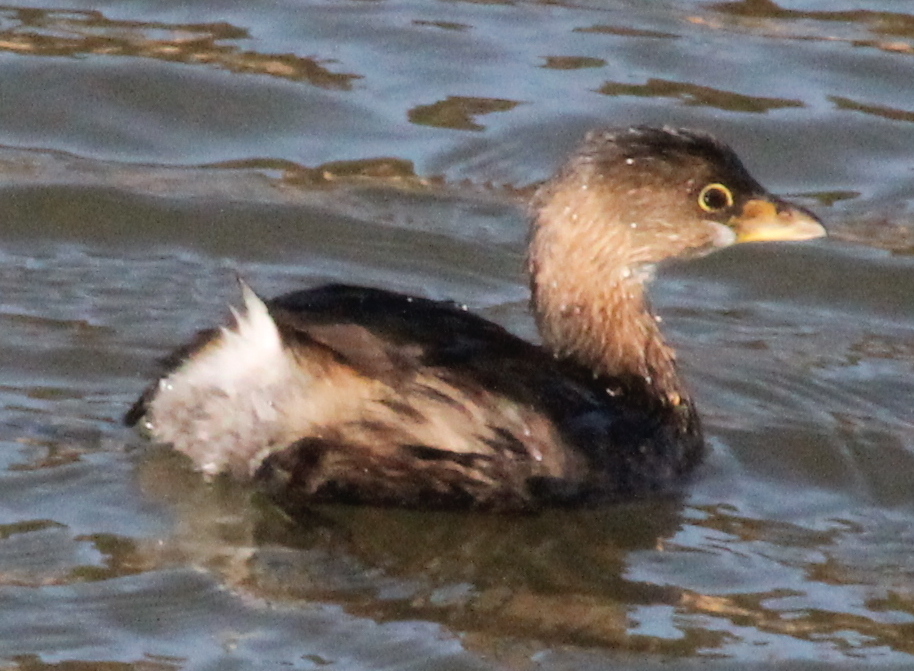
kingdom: Animalia
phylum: Chordata
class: Aves
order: Podicipediformes
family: Podicipedidae
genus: Podilymbus
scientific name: Podilymbus podiceps
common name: Pied-billed grebe
